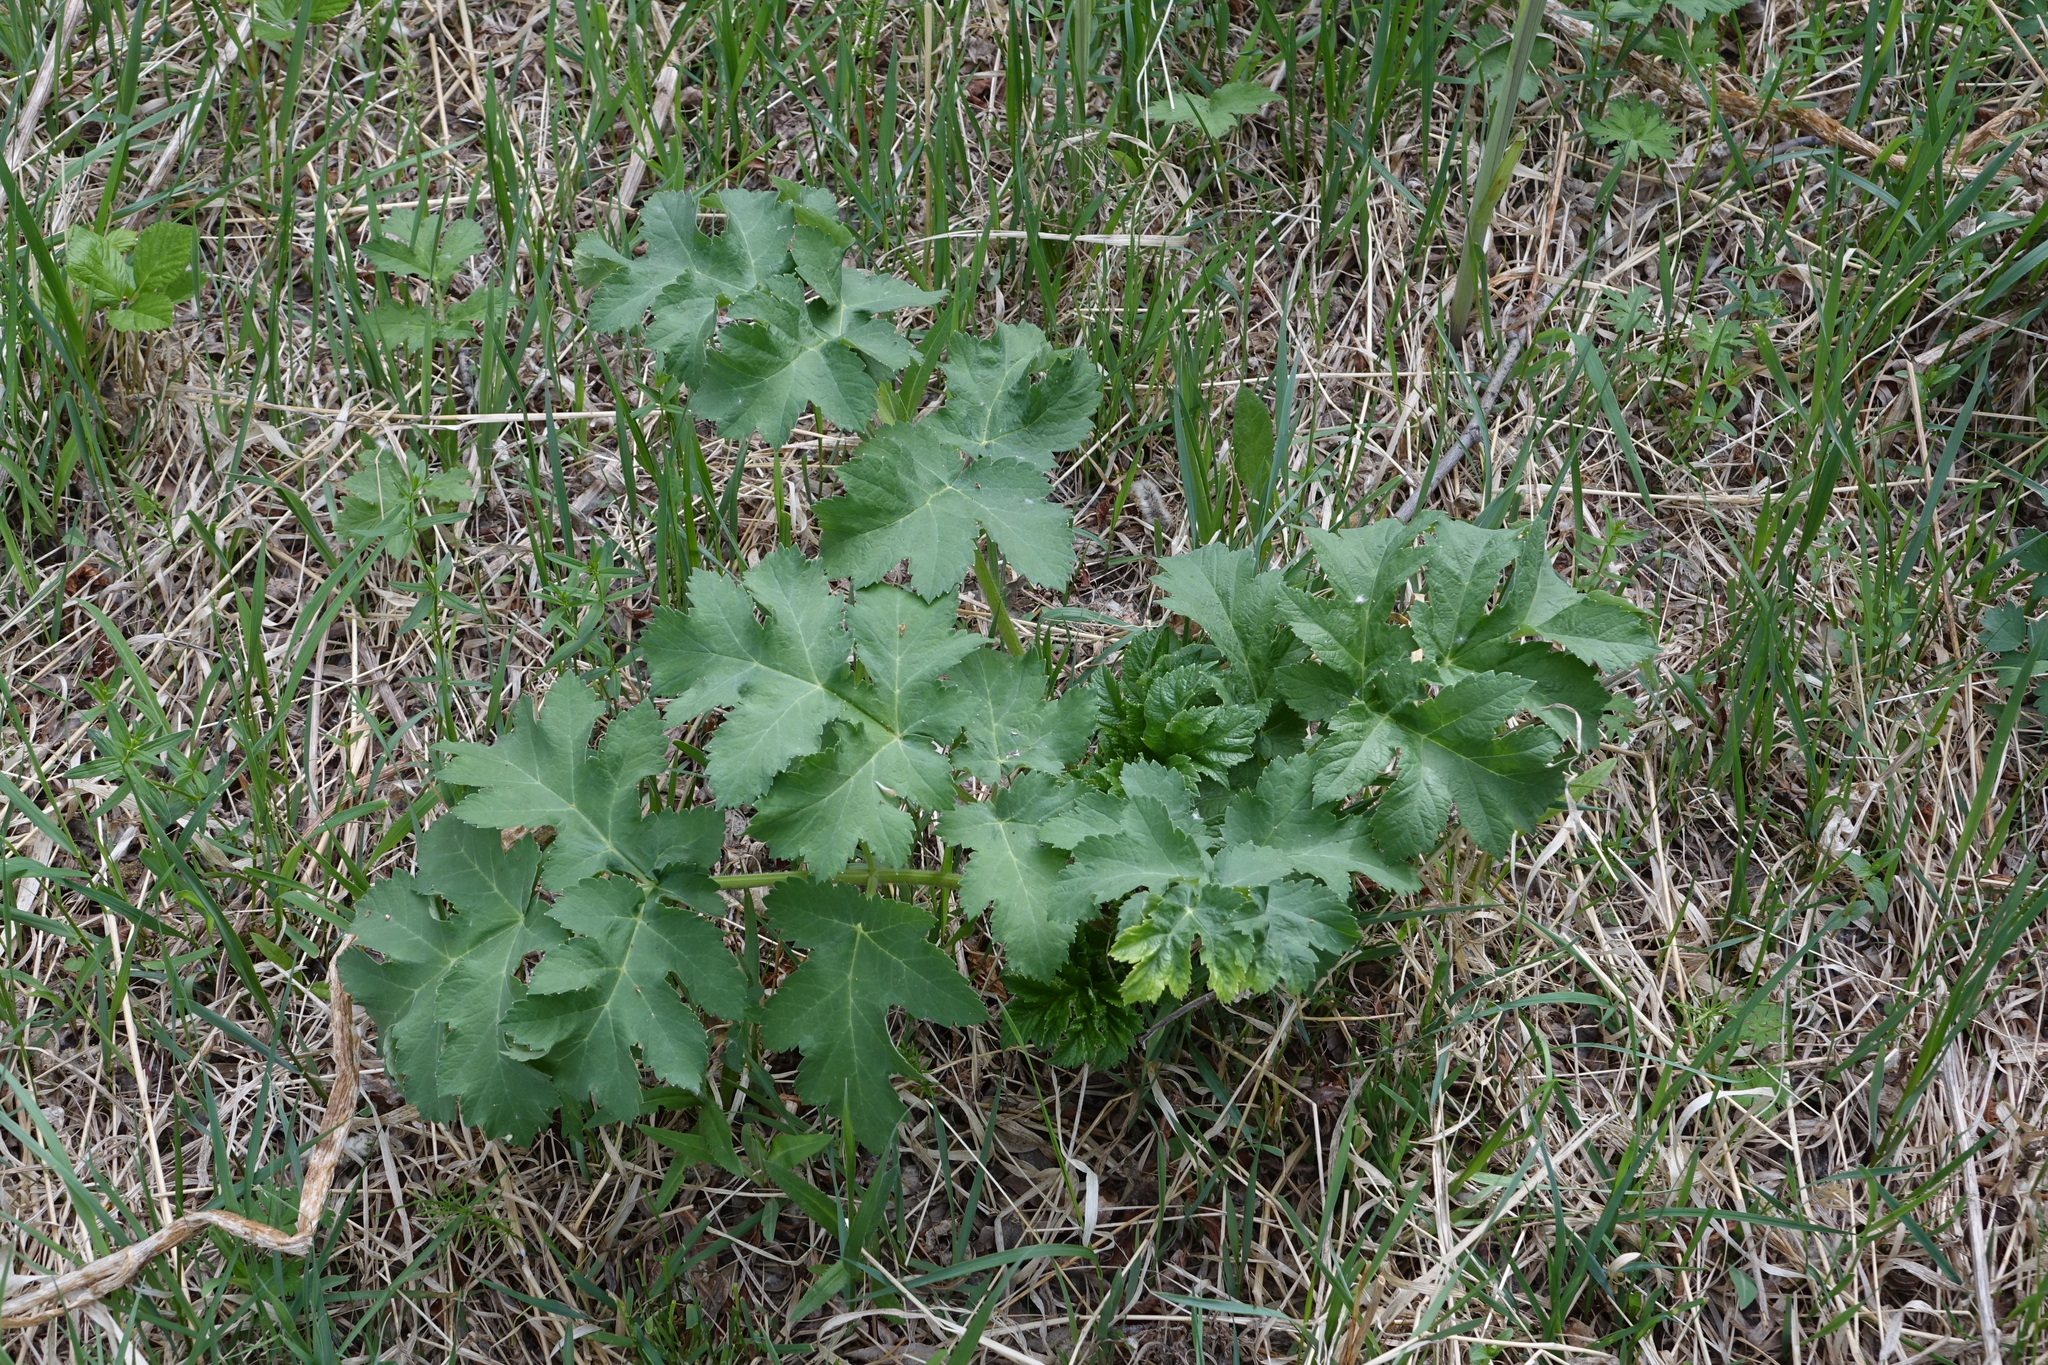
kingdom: Plantae
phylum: Tracheophyta
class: Magnoliopsida
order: Apiales
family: Apiaceae
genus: Heracleum
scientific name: Heracleum dissectum
